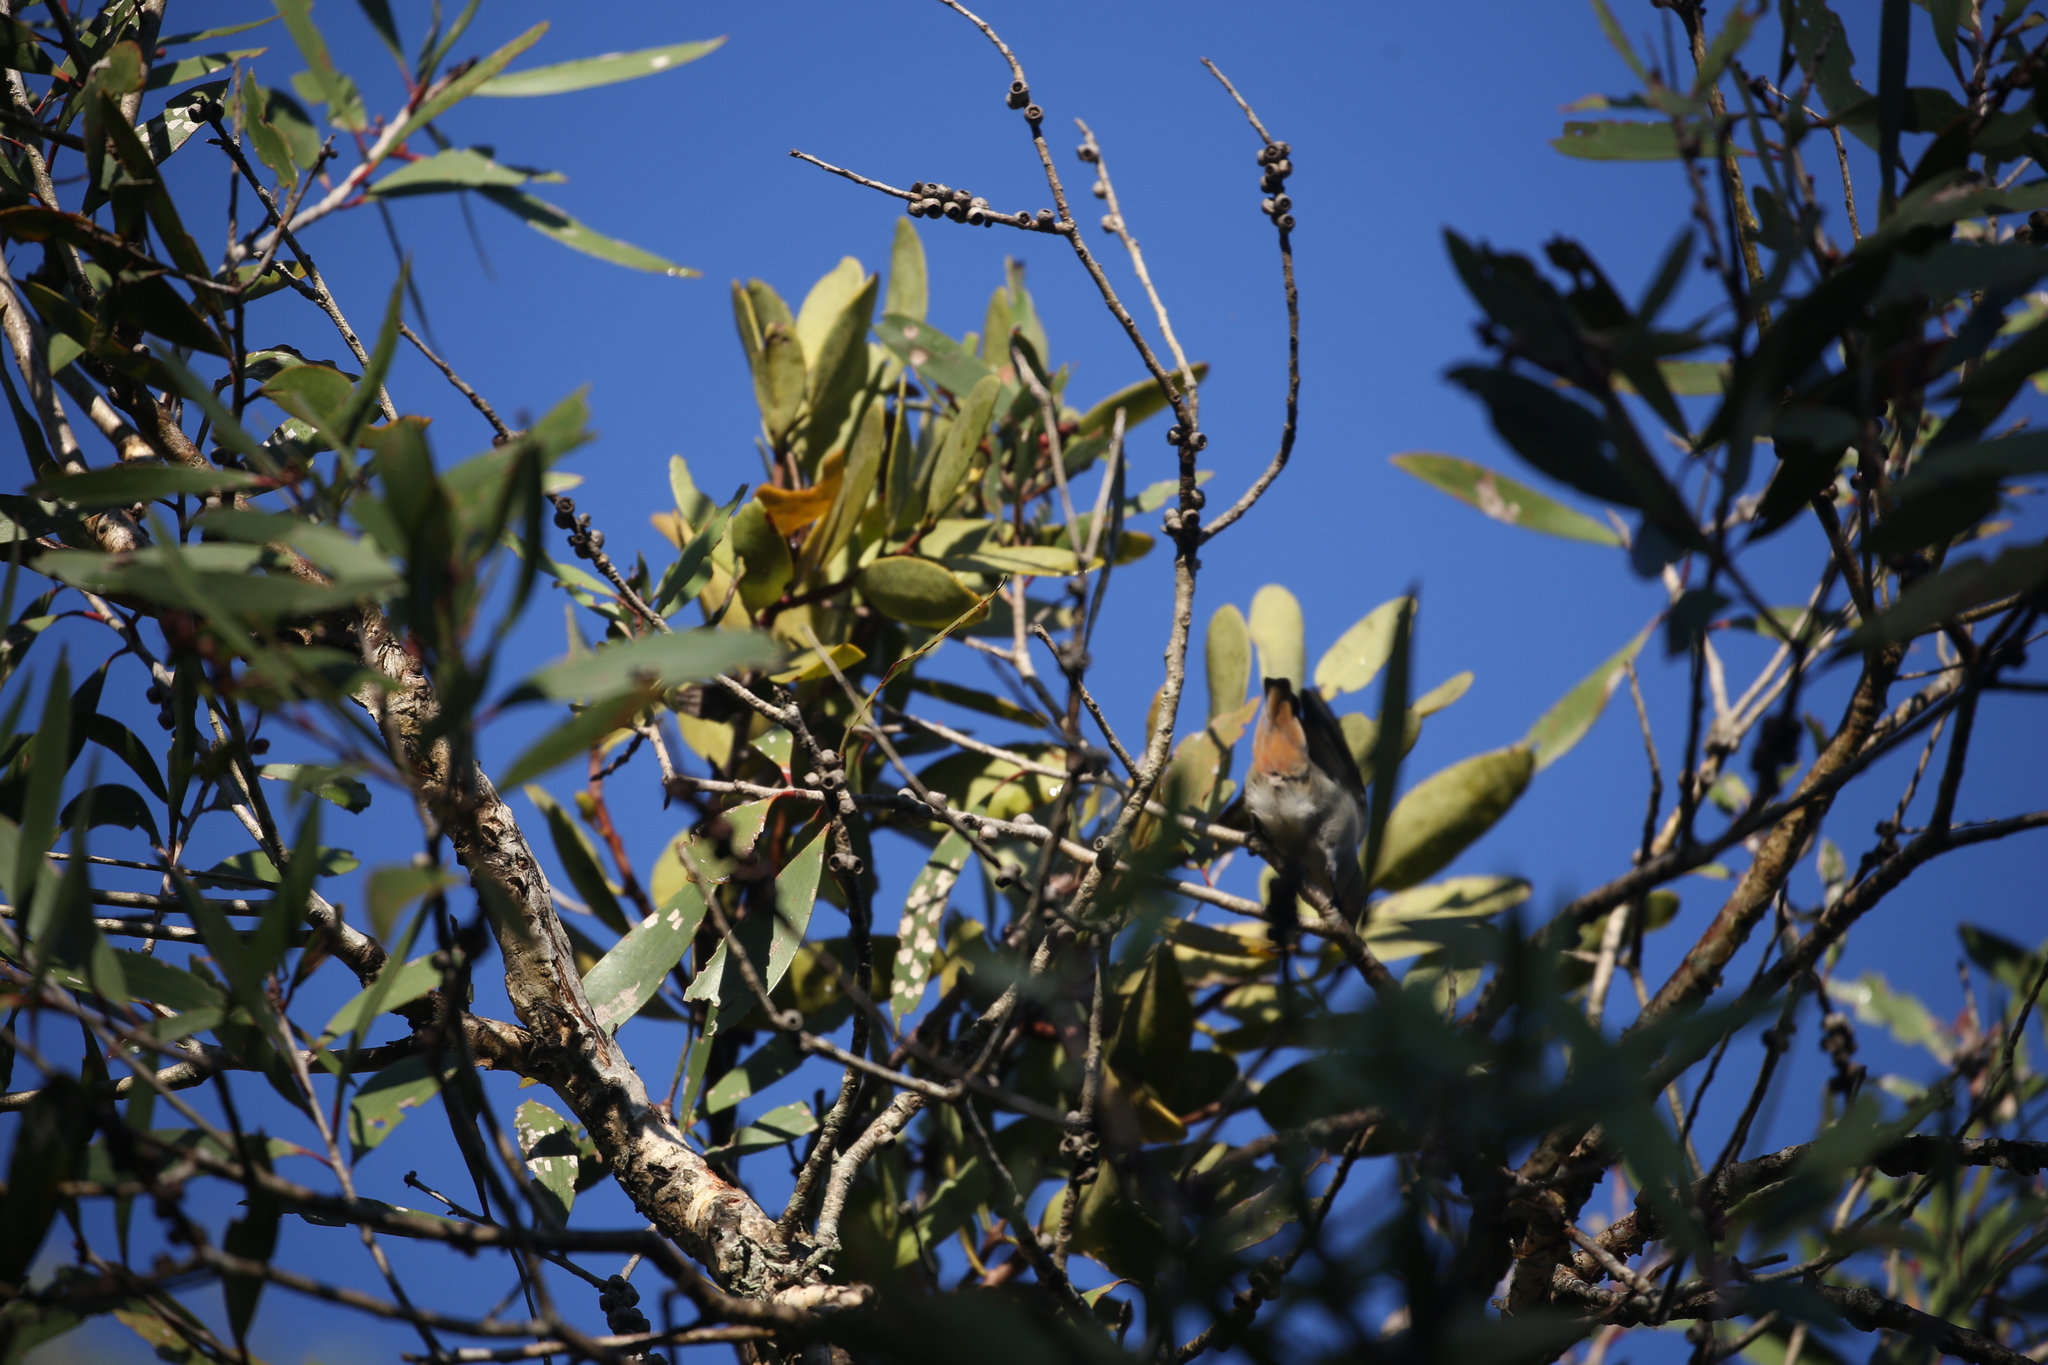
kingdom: Animalia
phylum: Chordata
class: Aves
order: Passeriformes
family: Dicaeidae
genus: Dicaeum
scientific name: Dicaeum hirundinaceum
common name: Mistletoebird
